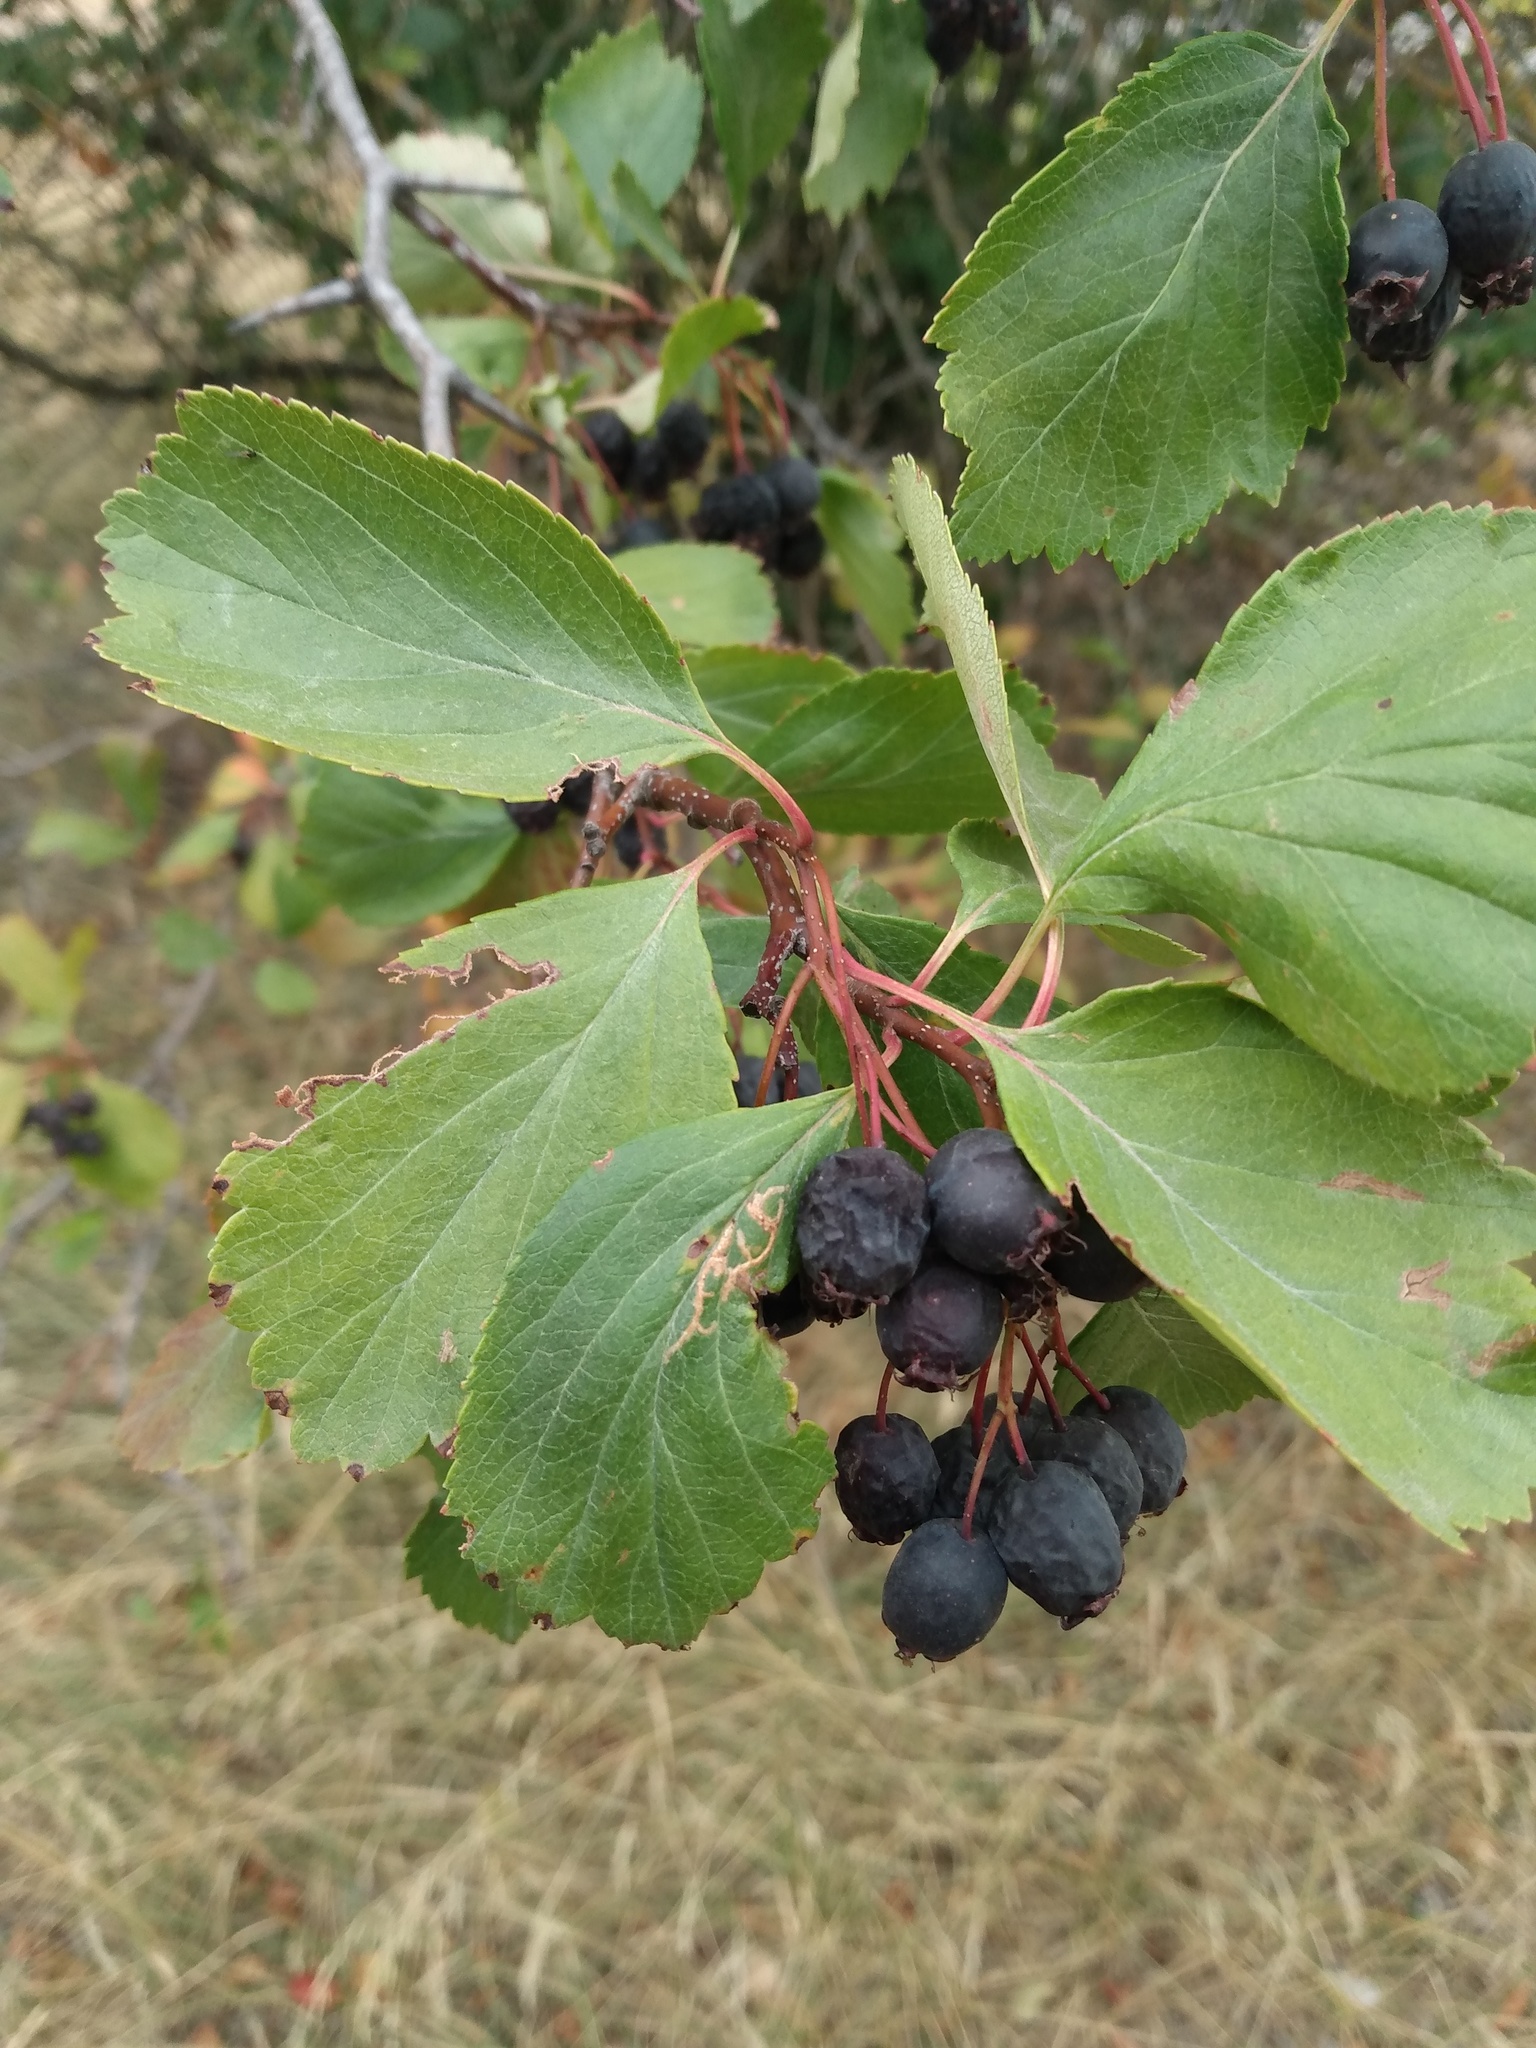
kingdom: Plantae
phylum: Tracheophyta
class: Magnoliopsida
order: Rosales
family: Rosaceae
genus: Crataegus
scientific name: Crataegus douglasii
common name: Black hawthorn
